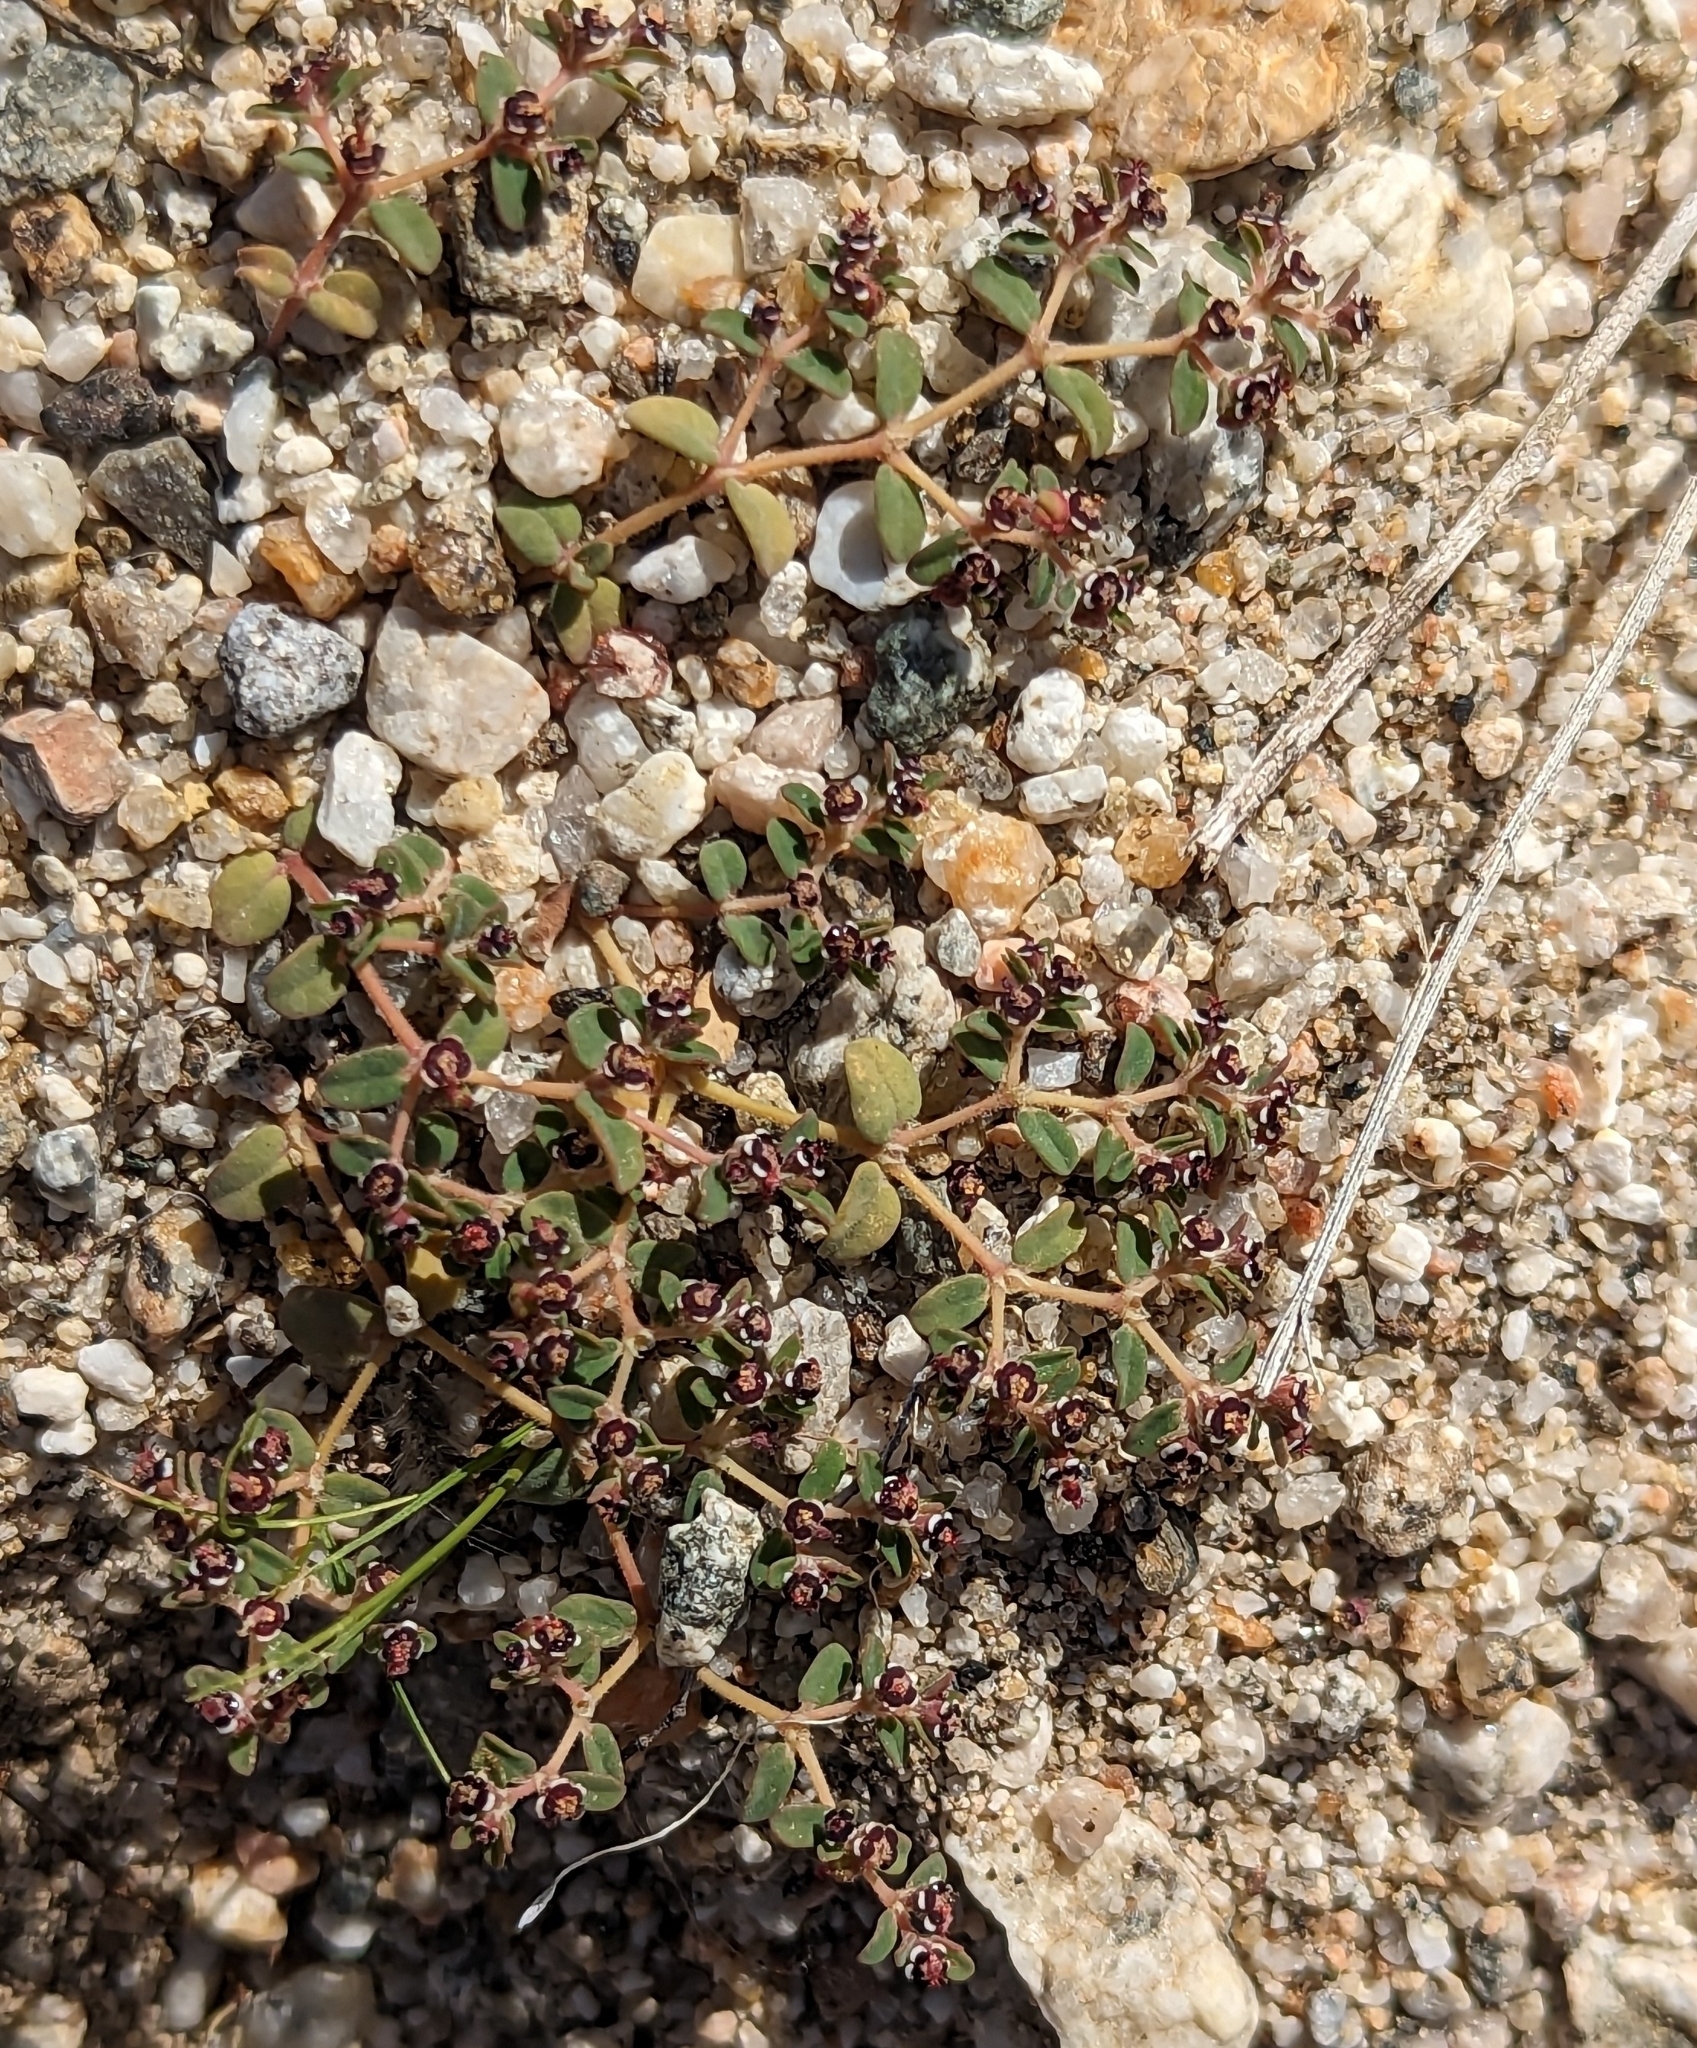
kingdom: Plantae
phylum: Tracheophyta
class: Magnoliopsida
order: Malpighiales
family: Euphorbiaceae
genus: Euphorbia
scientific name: Euphorbia polycarpa
